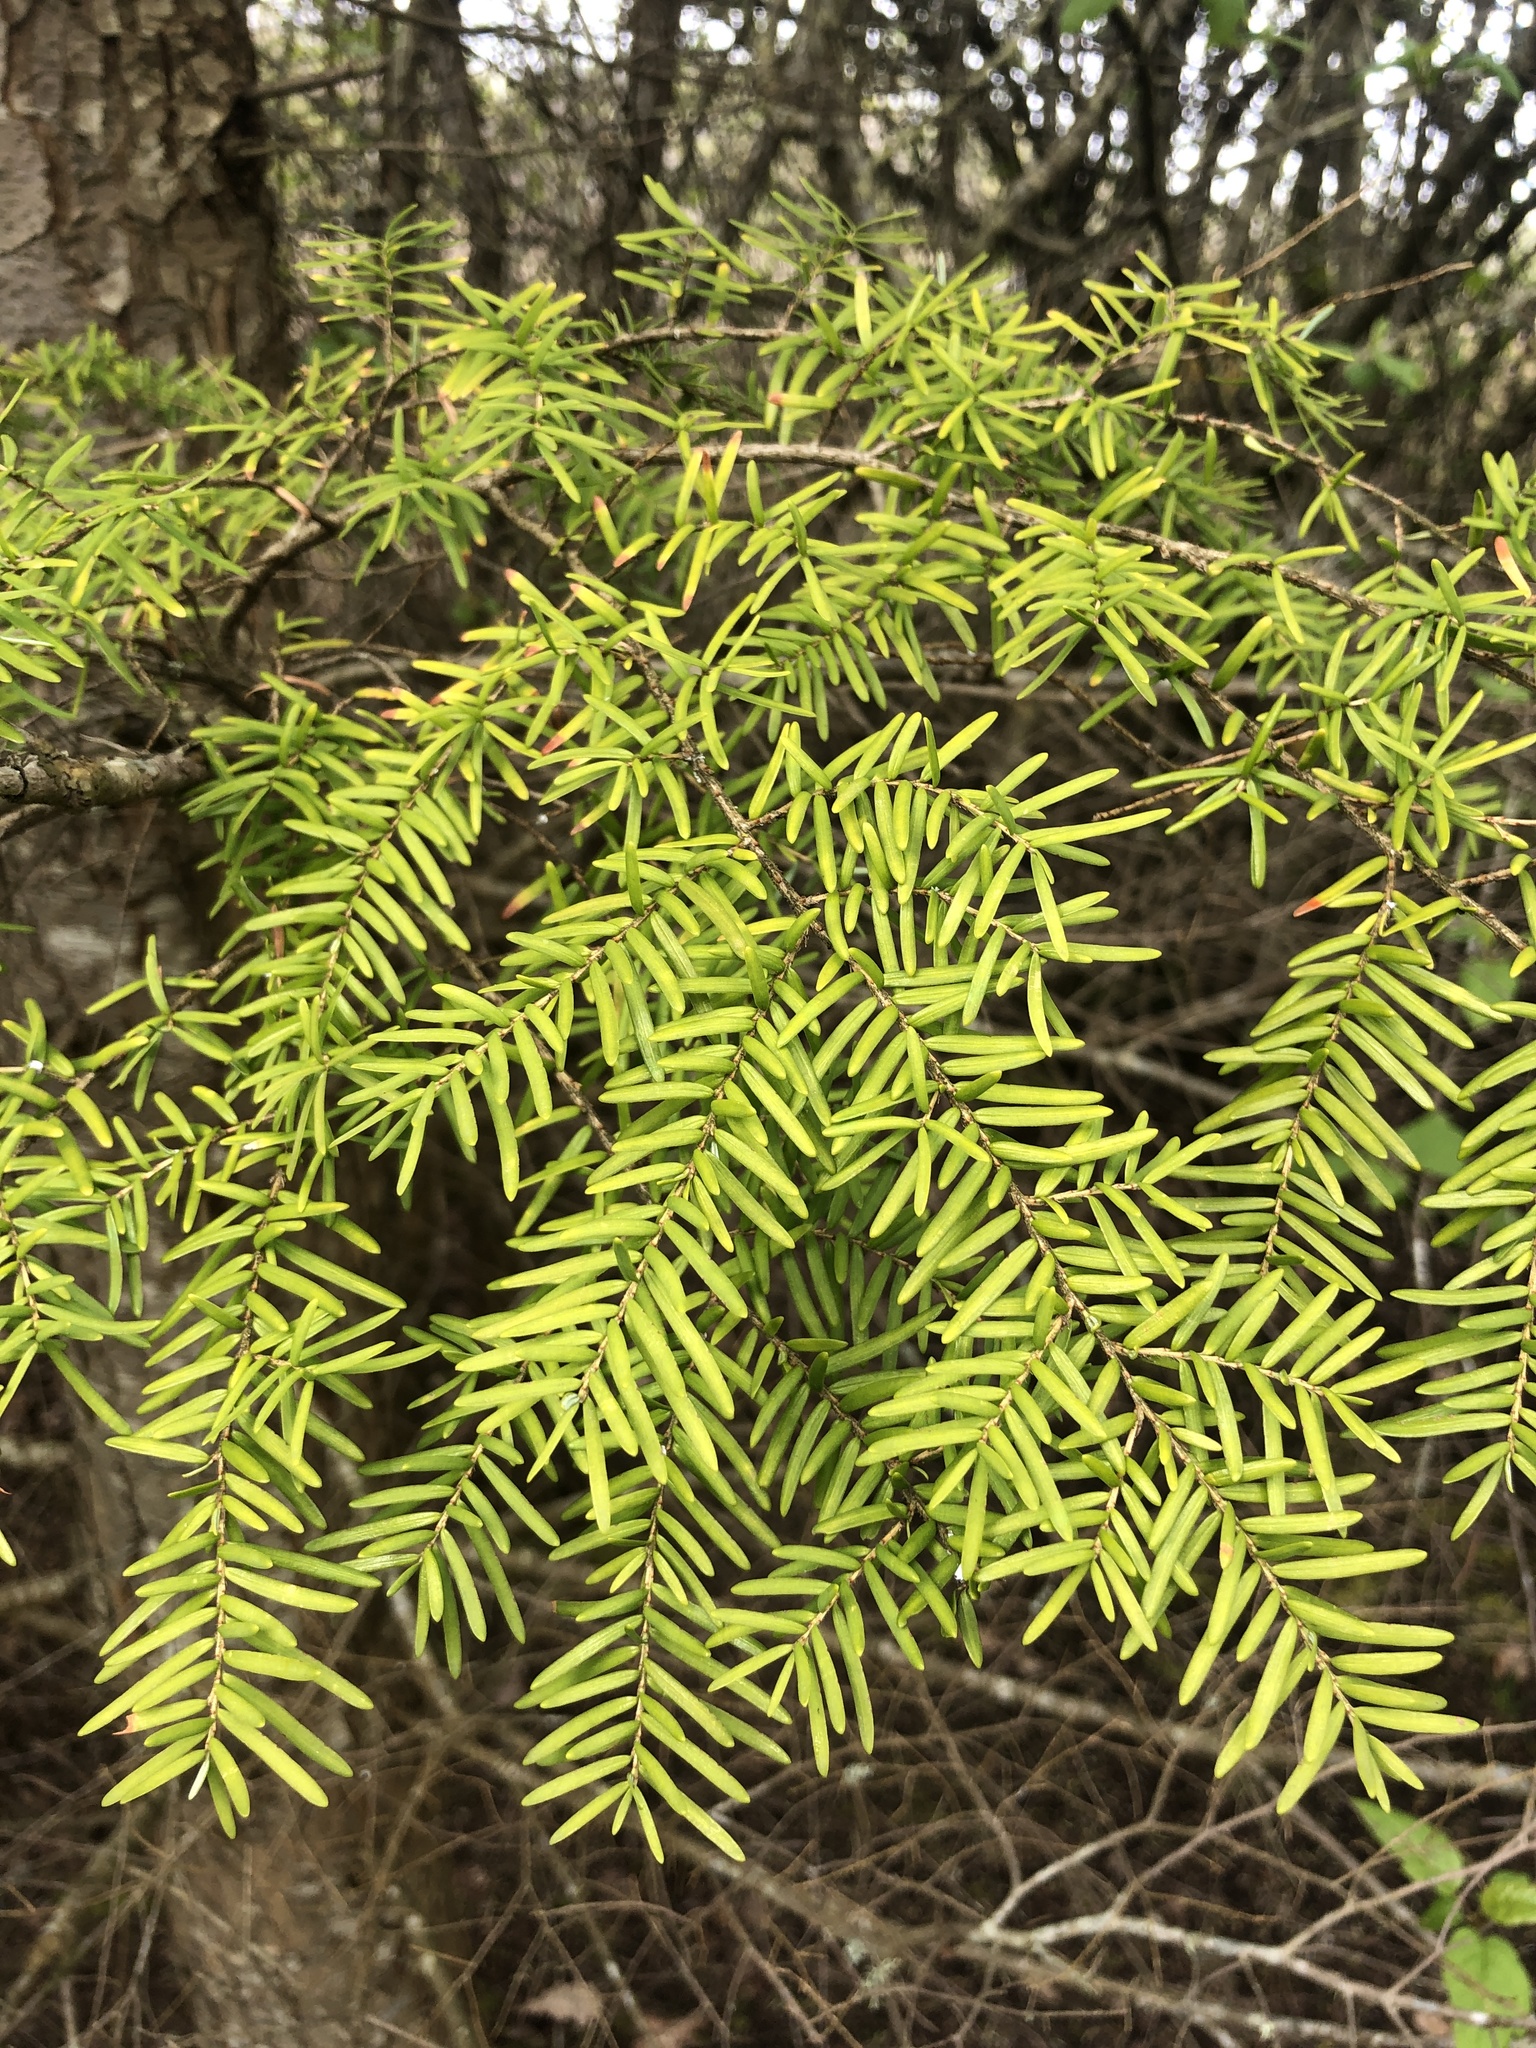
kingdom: Plantae
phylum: Tracheophyta
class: Pinopsida
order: Pinales
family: Pinaceae
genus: Tsuga
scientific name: Tsuga heterophylla
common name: Western hemlock
